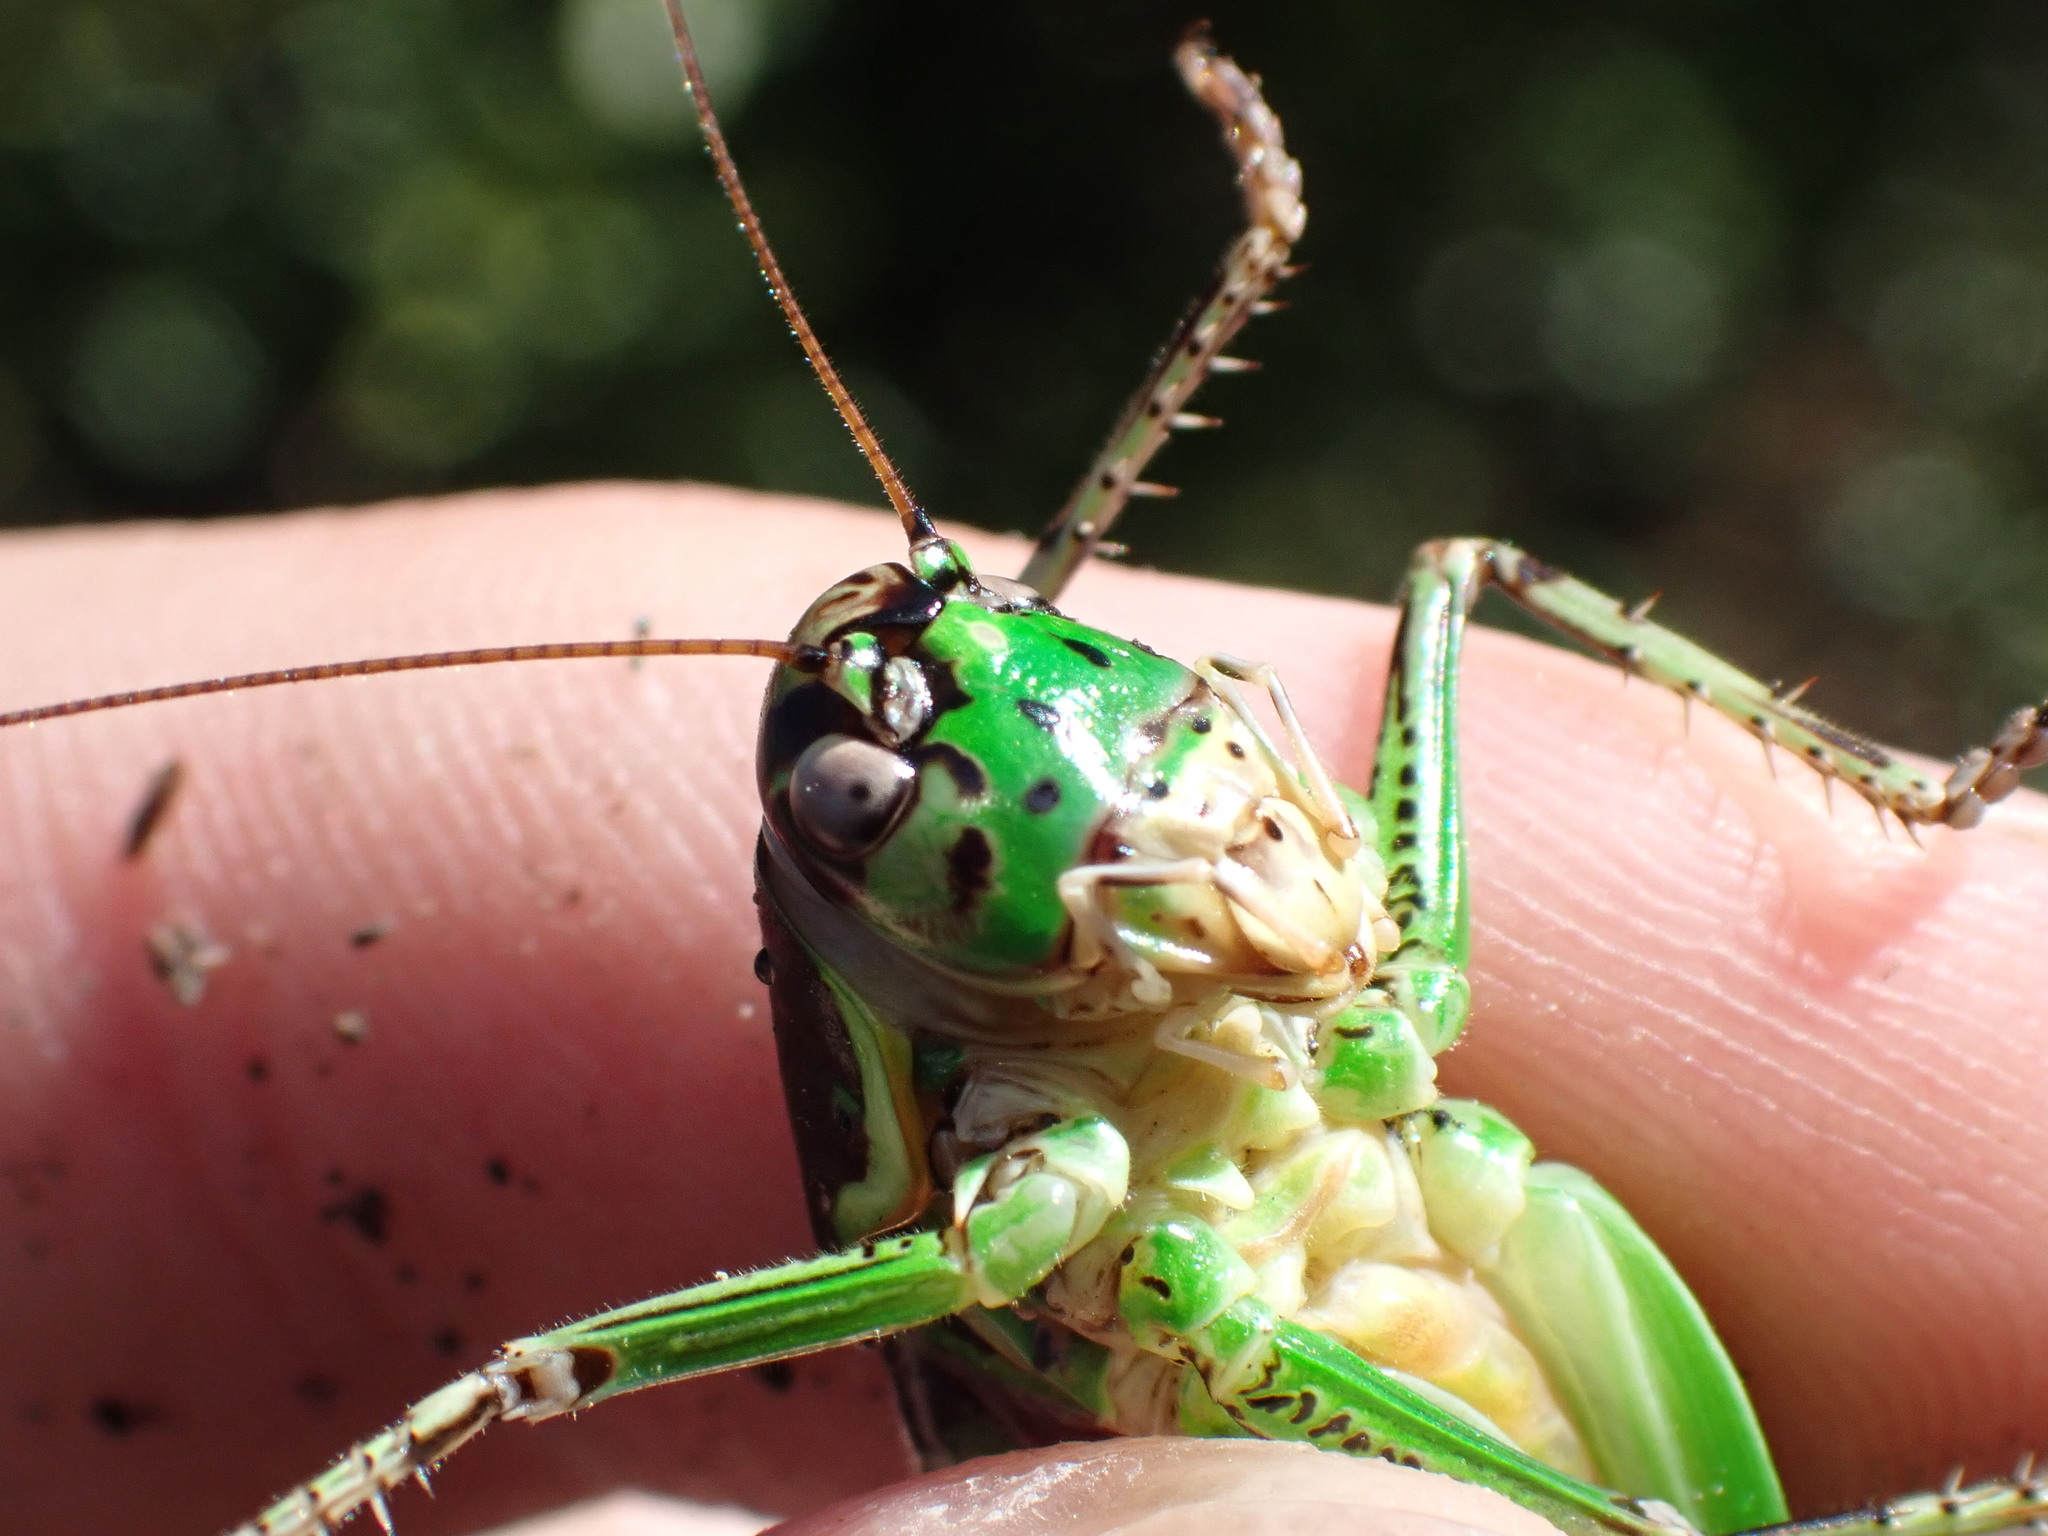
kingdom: Animalia
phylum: Arthropoda
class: Insecta
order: Orthoptera
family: Tettigoniidae
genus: Eupholidoptera
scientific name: Eupholidoptera chabrieri
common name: Chabrier's marbled bush-cricket
